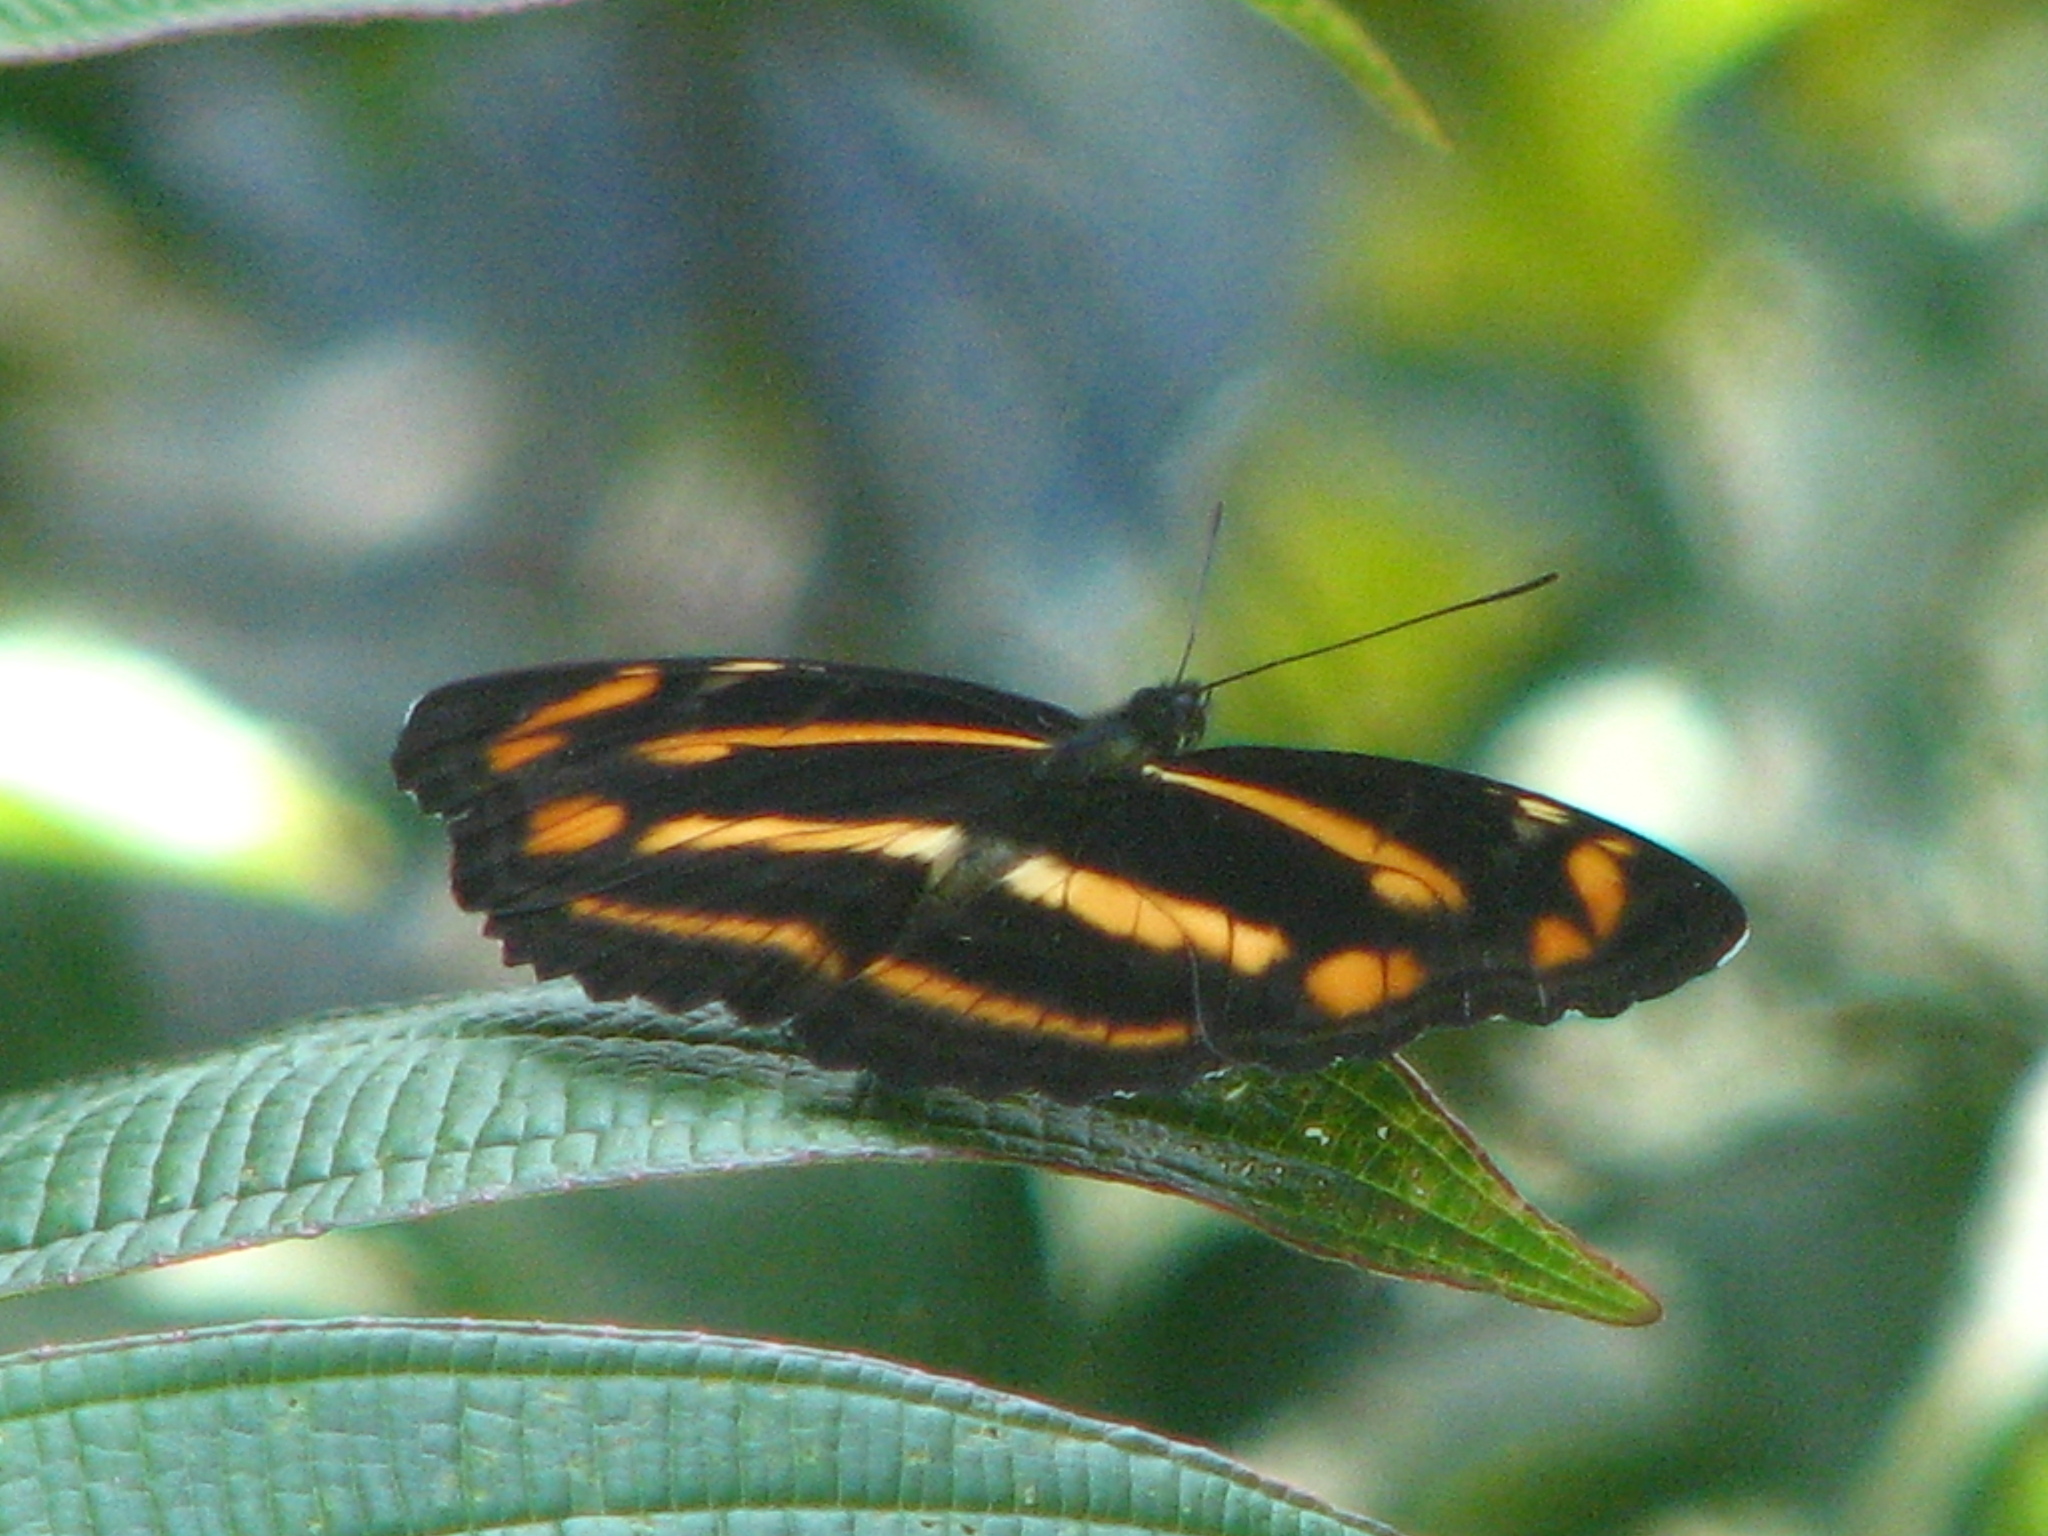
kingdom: Animalia
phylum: Arthropoda
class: Insecta
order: Lepidoptera
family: Nymphalidae
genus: Neptis
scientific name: Neptis radha
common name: Great yellow sailer
